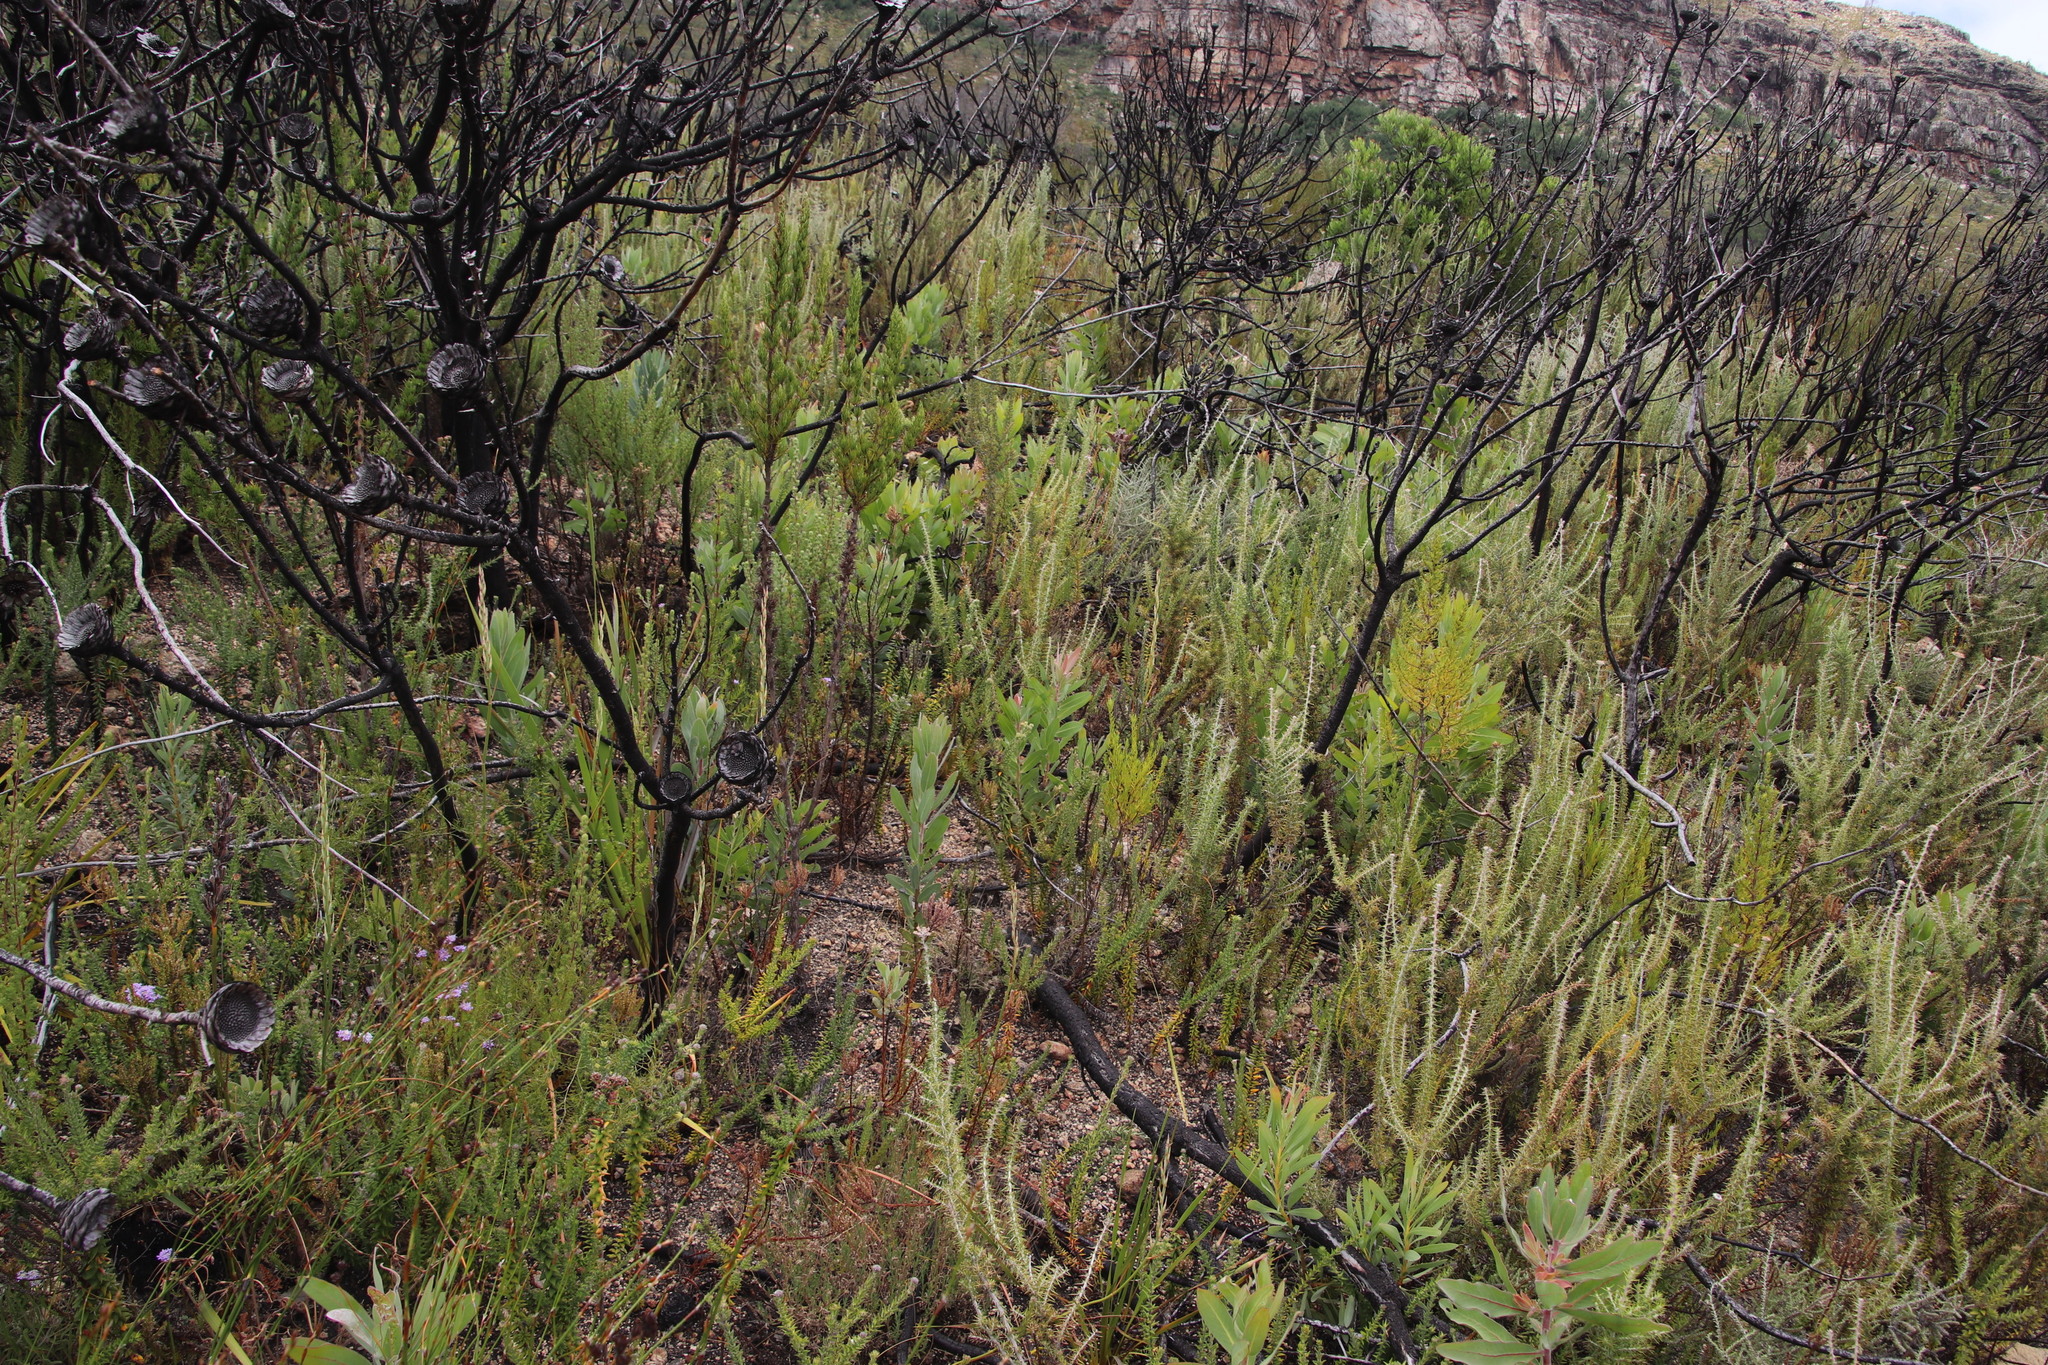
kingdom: Plantae
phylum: Tracheophyta
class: Magnoliopsida
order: Proteales
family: Proteaceae
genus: Protea
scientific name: Protea repens
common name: Sugarbush
